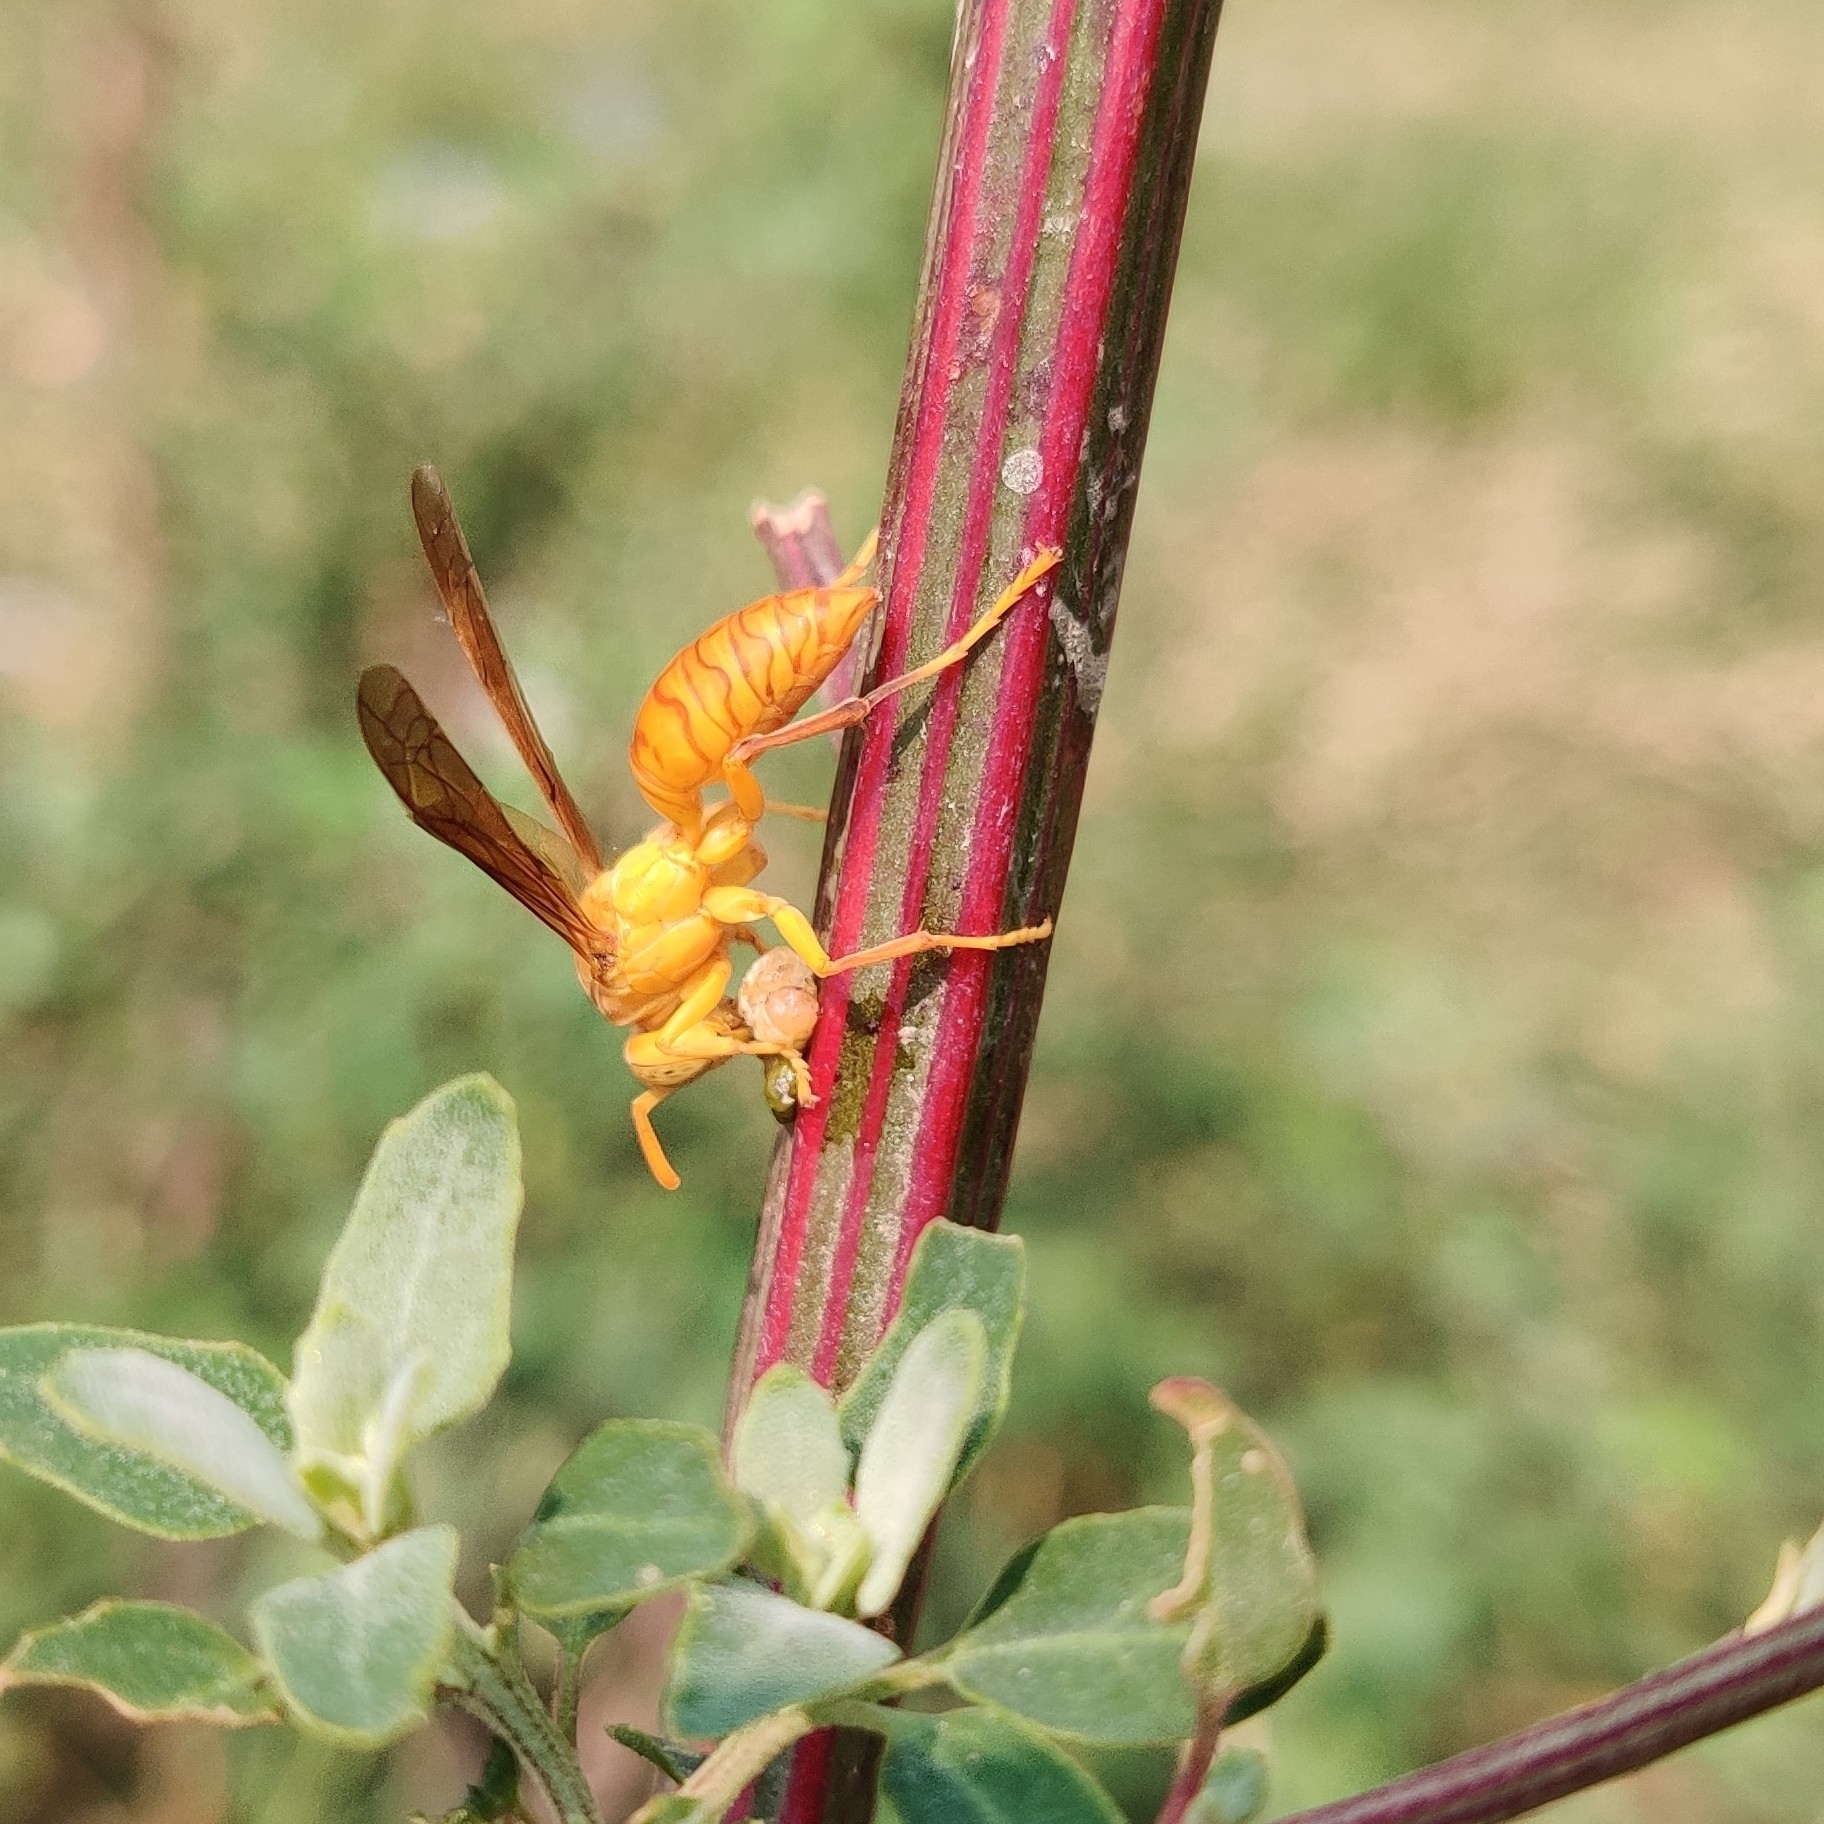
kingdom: Animalia
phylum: Arthropoda
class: Insecta
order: Hymenoptera
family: Eumenidae
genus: Polistes
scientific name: Polistes wattii
